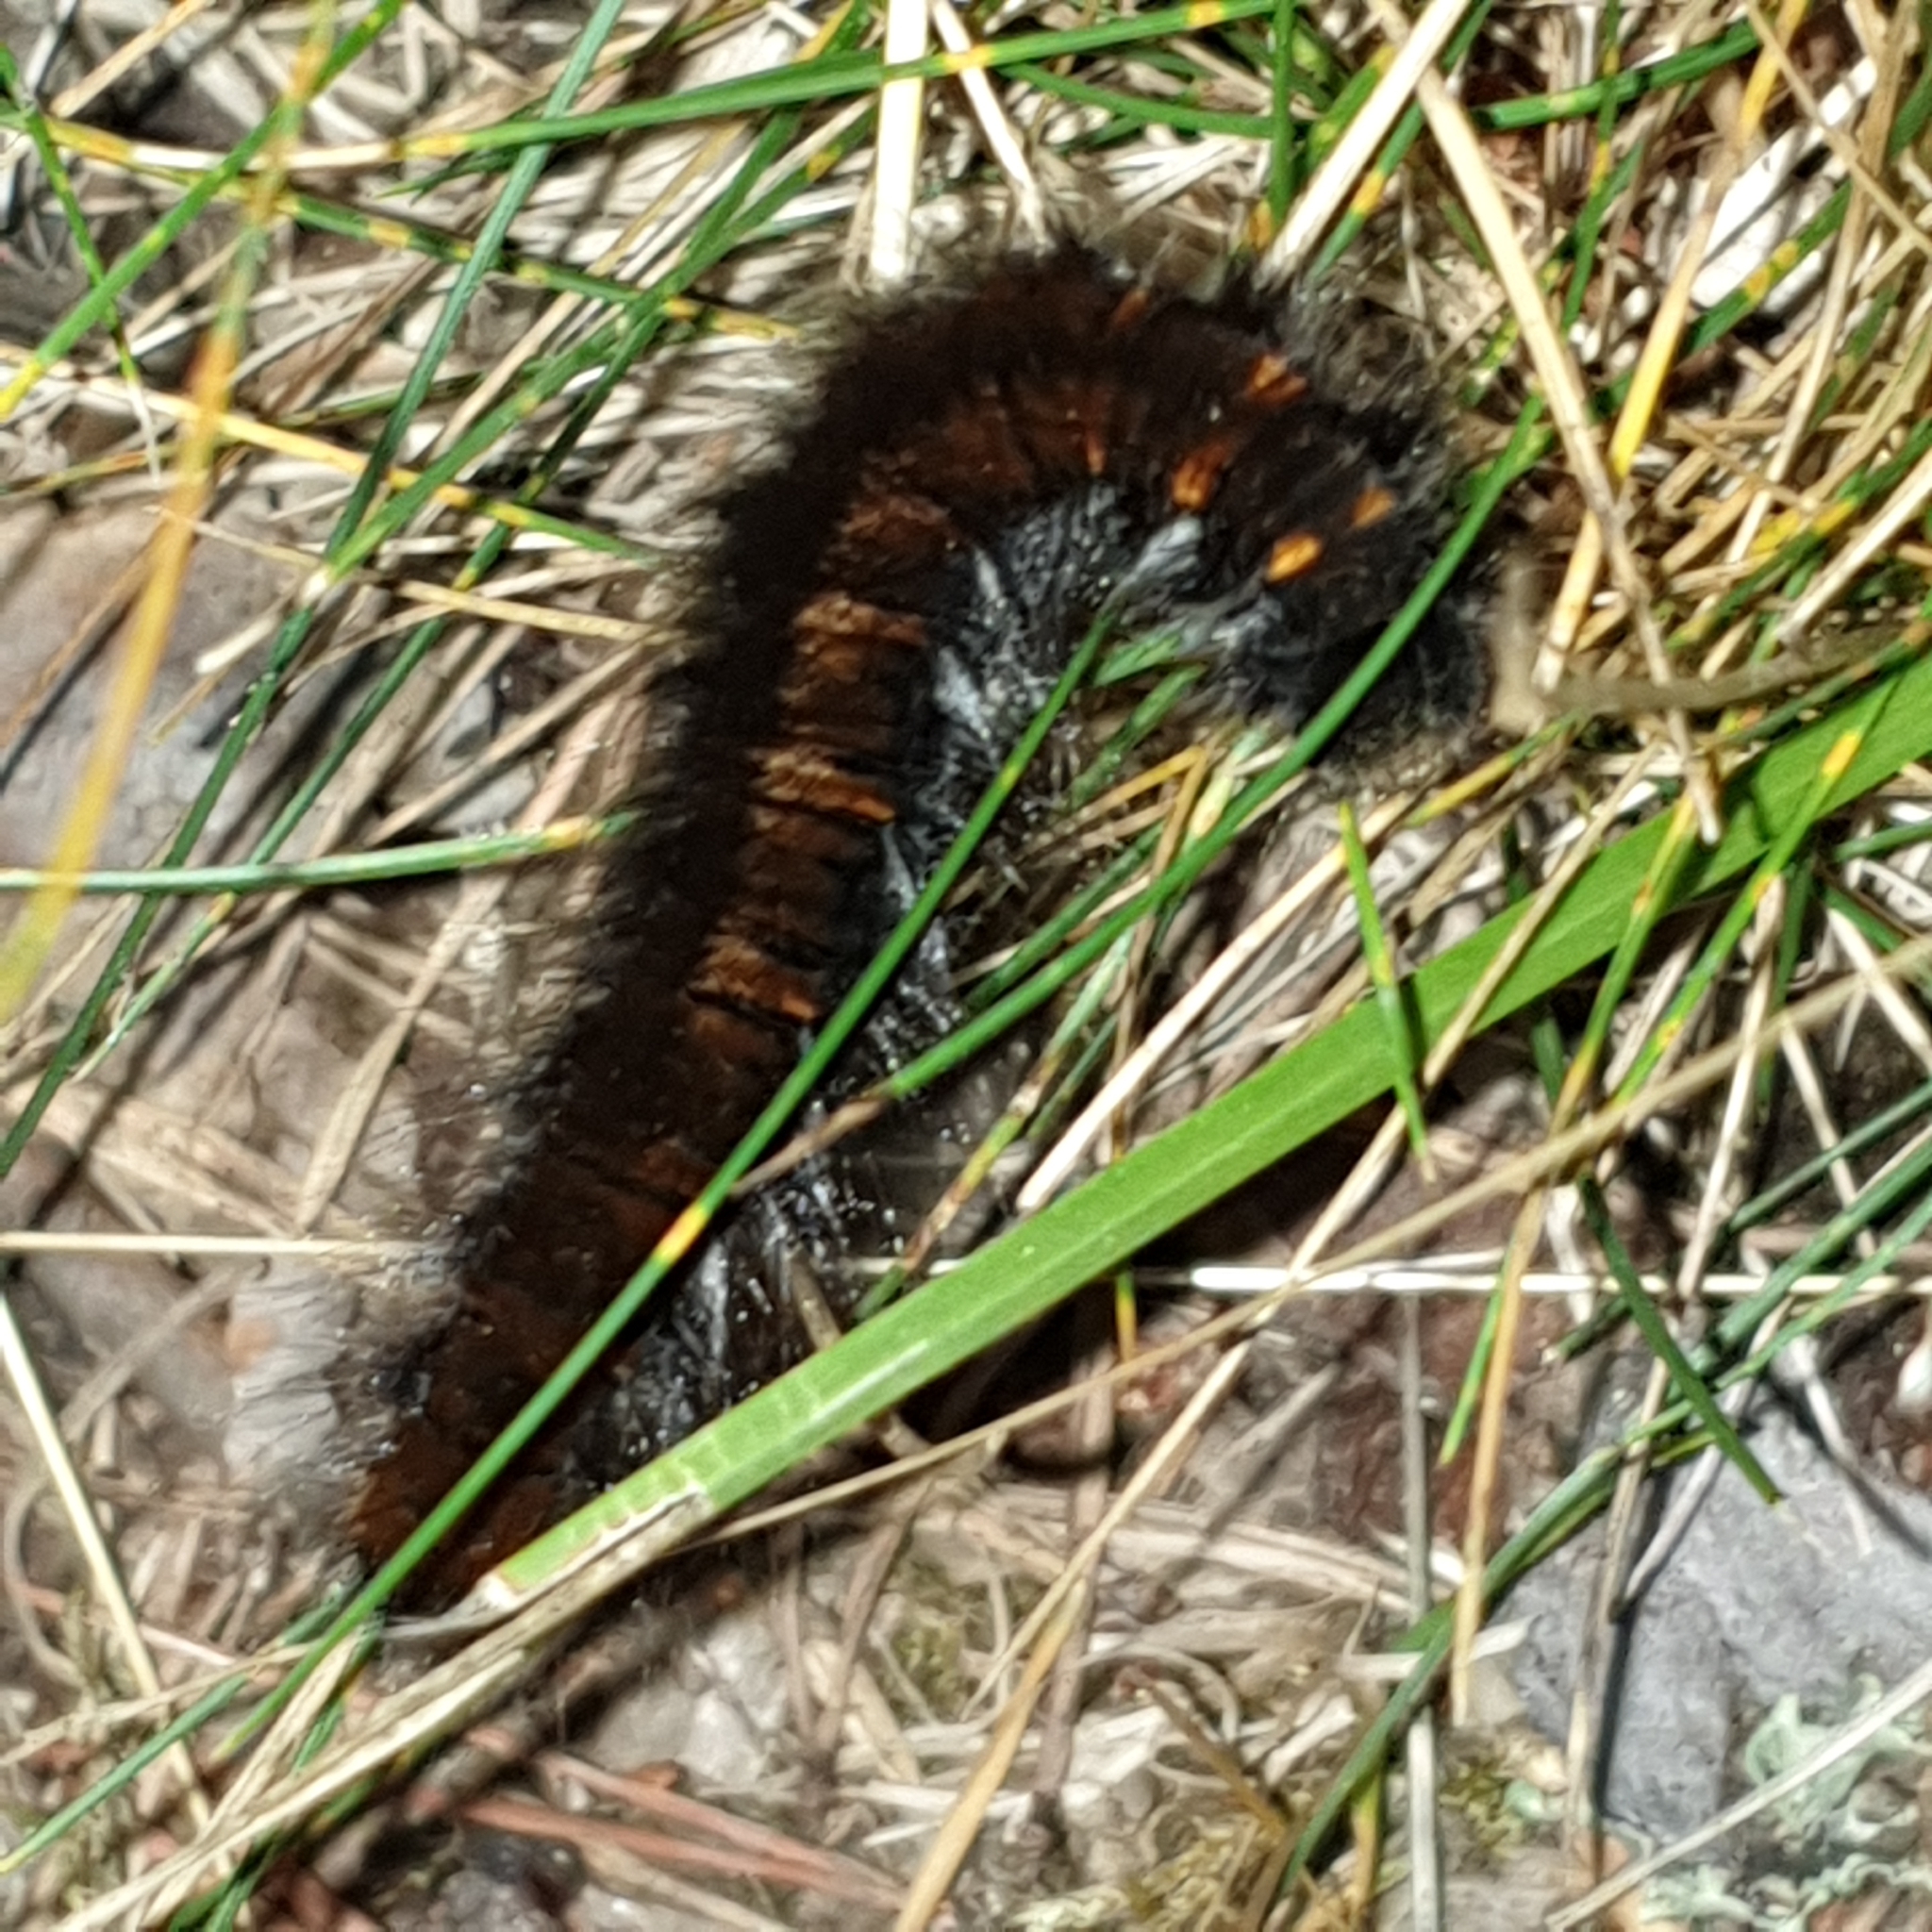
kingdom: Animalia
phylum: Arthropoda
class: Insecta
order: Lepidoptera
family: Lasiocampidae
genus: Macrothylacia
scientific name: Macrothylacia rubi
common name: Fox moth
